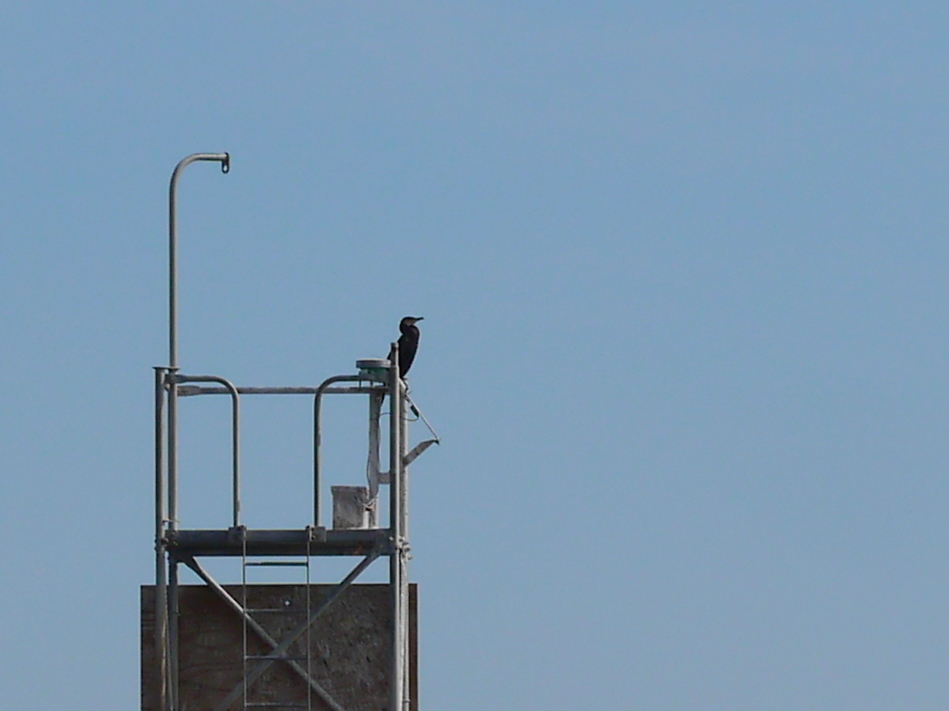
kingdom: Animalia
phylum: Chordata
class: Aves
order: Suliformes
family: Phalacrocoracidae
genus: Phalacrocorax
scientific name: Phalacrocorax carbo
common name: Great cormorant
